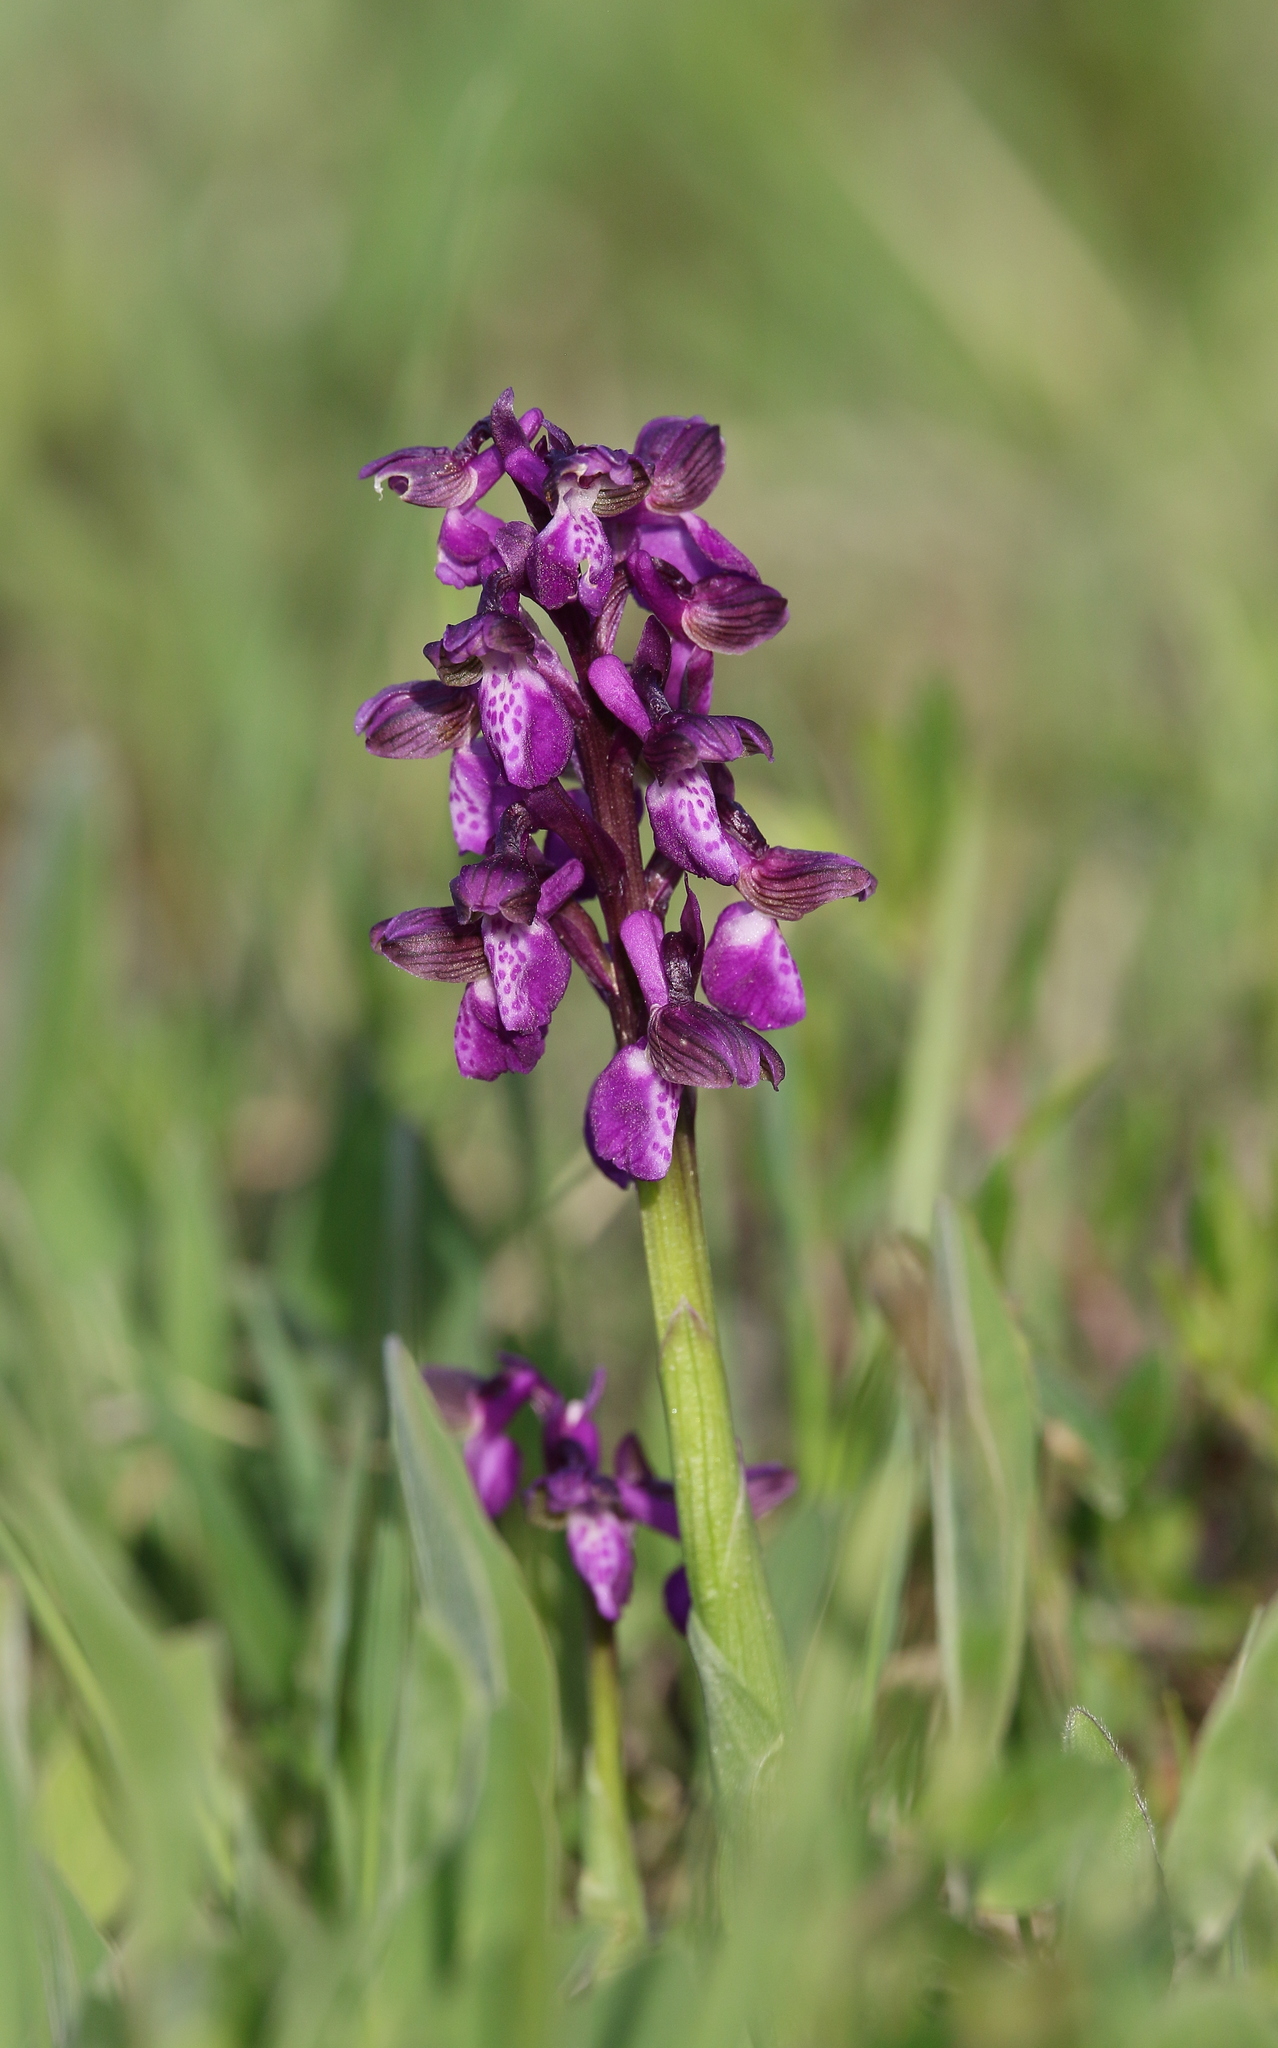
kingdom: Plantae
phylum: Tracheophyta
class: Liliopsida
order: Asparagales
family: Orchidaceae
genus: Anacamptis
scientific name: Anacamptis morio
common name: Green-winged orchid
